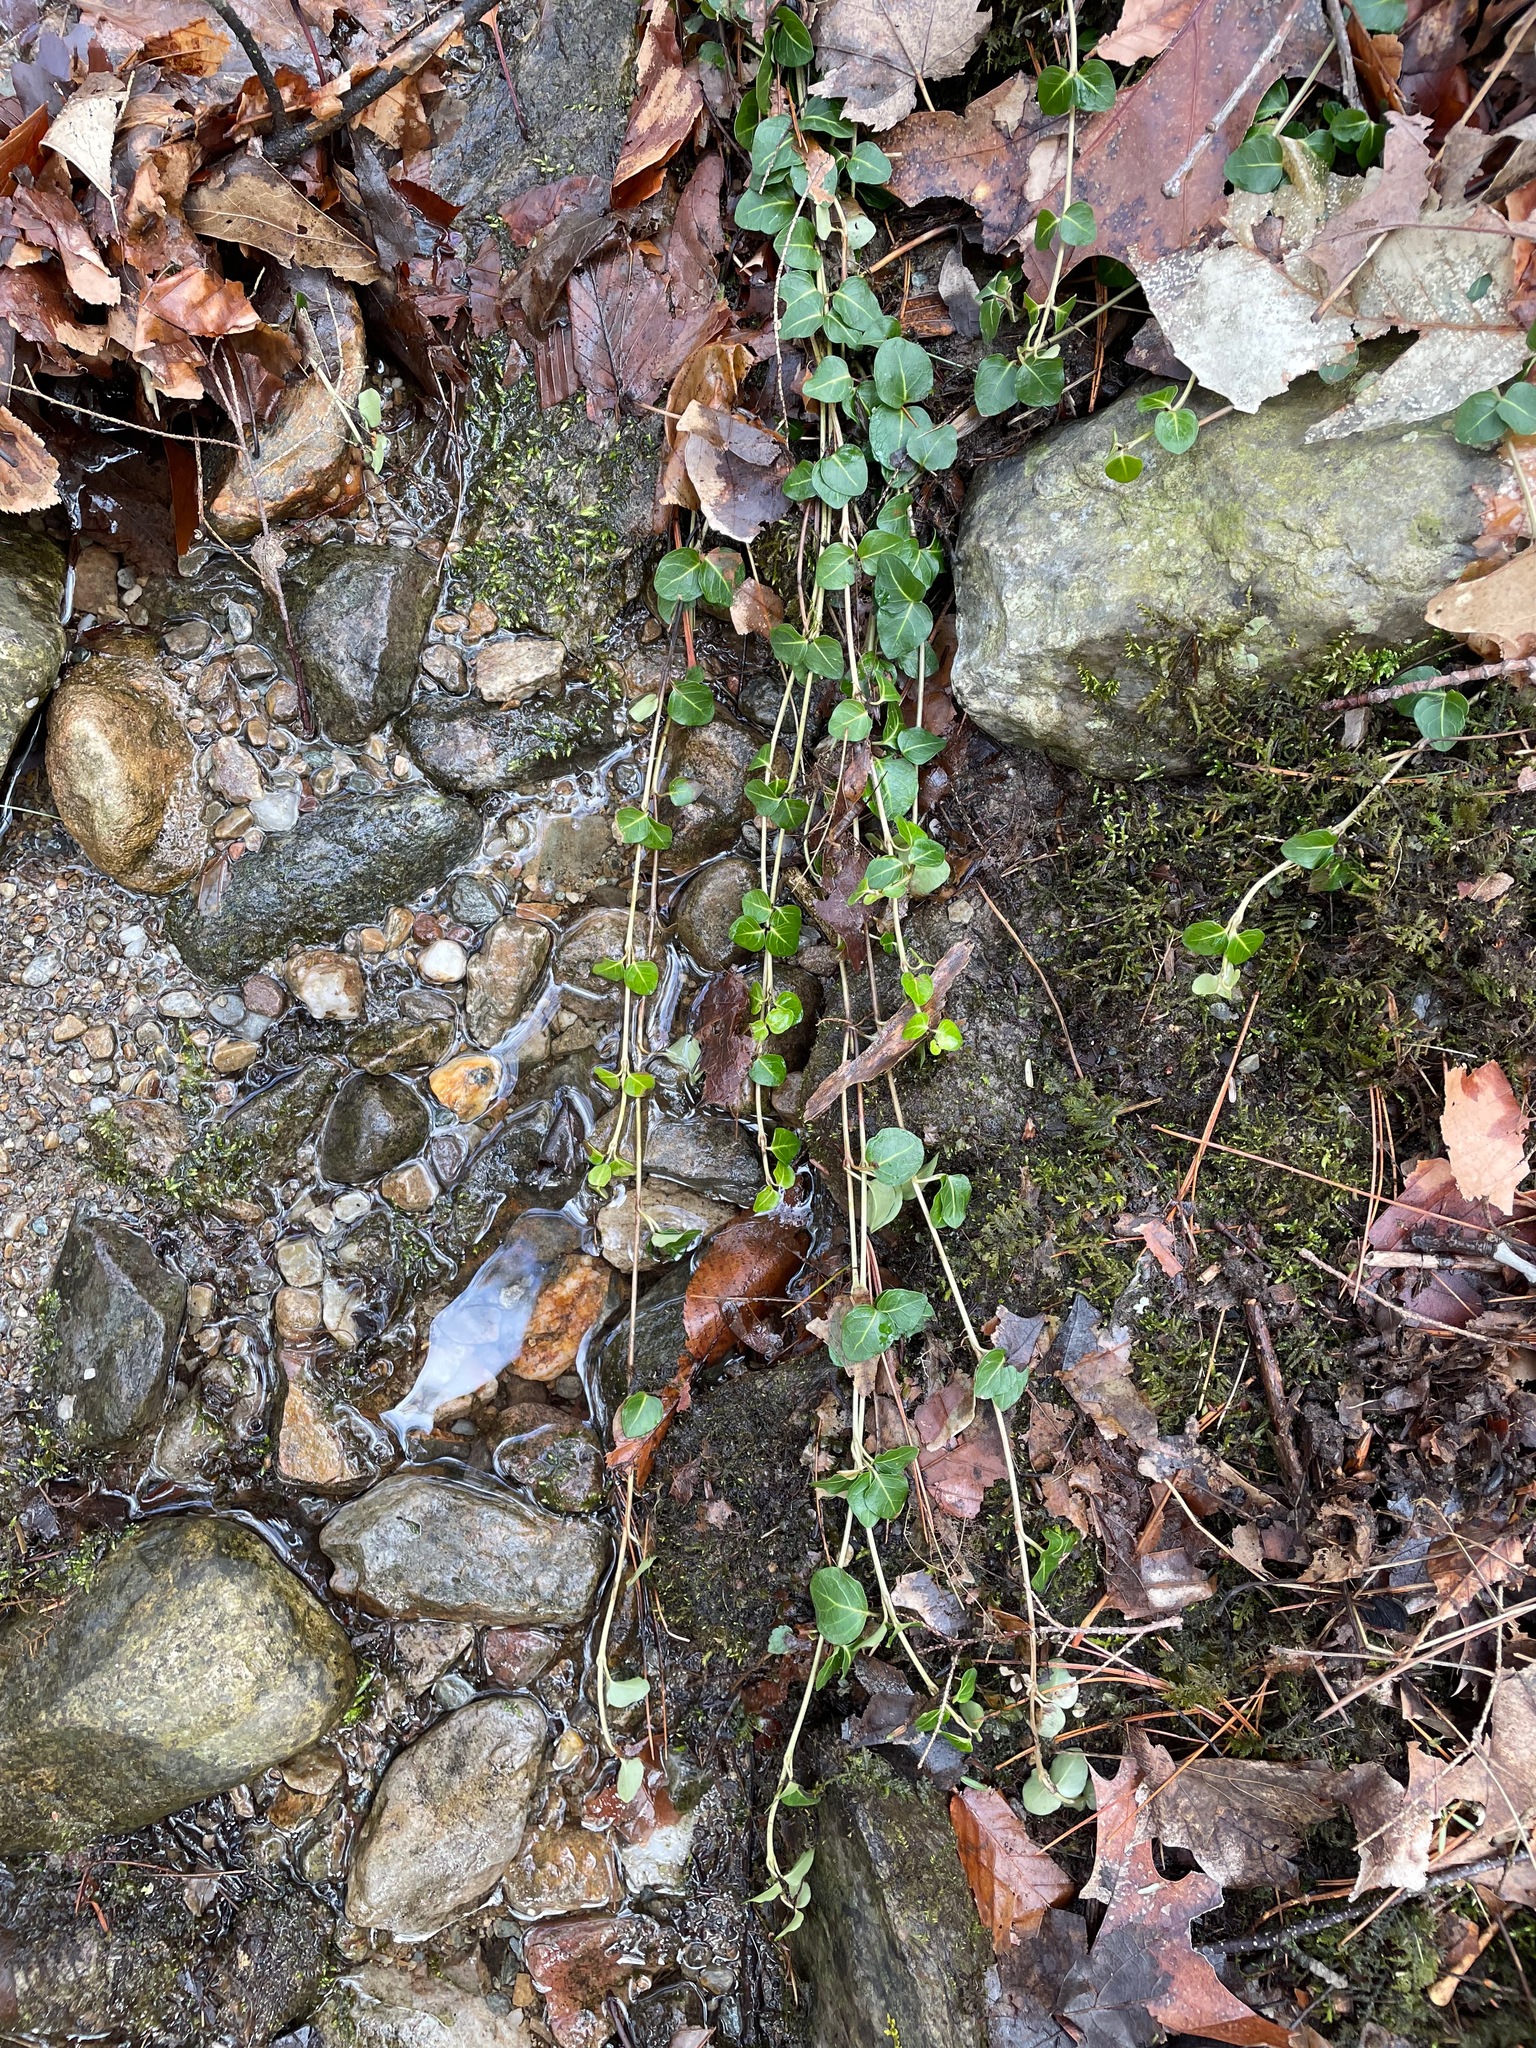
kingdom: Plantae
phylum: Tracheophyta
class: Magnoliopsida
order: Gentianales
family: Rubiaceae
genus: Mitchella
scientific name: Mitchella repens
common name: Partridge-berry
